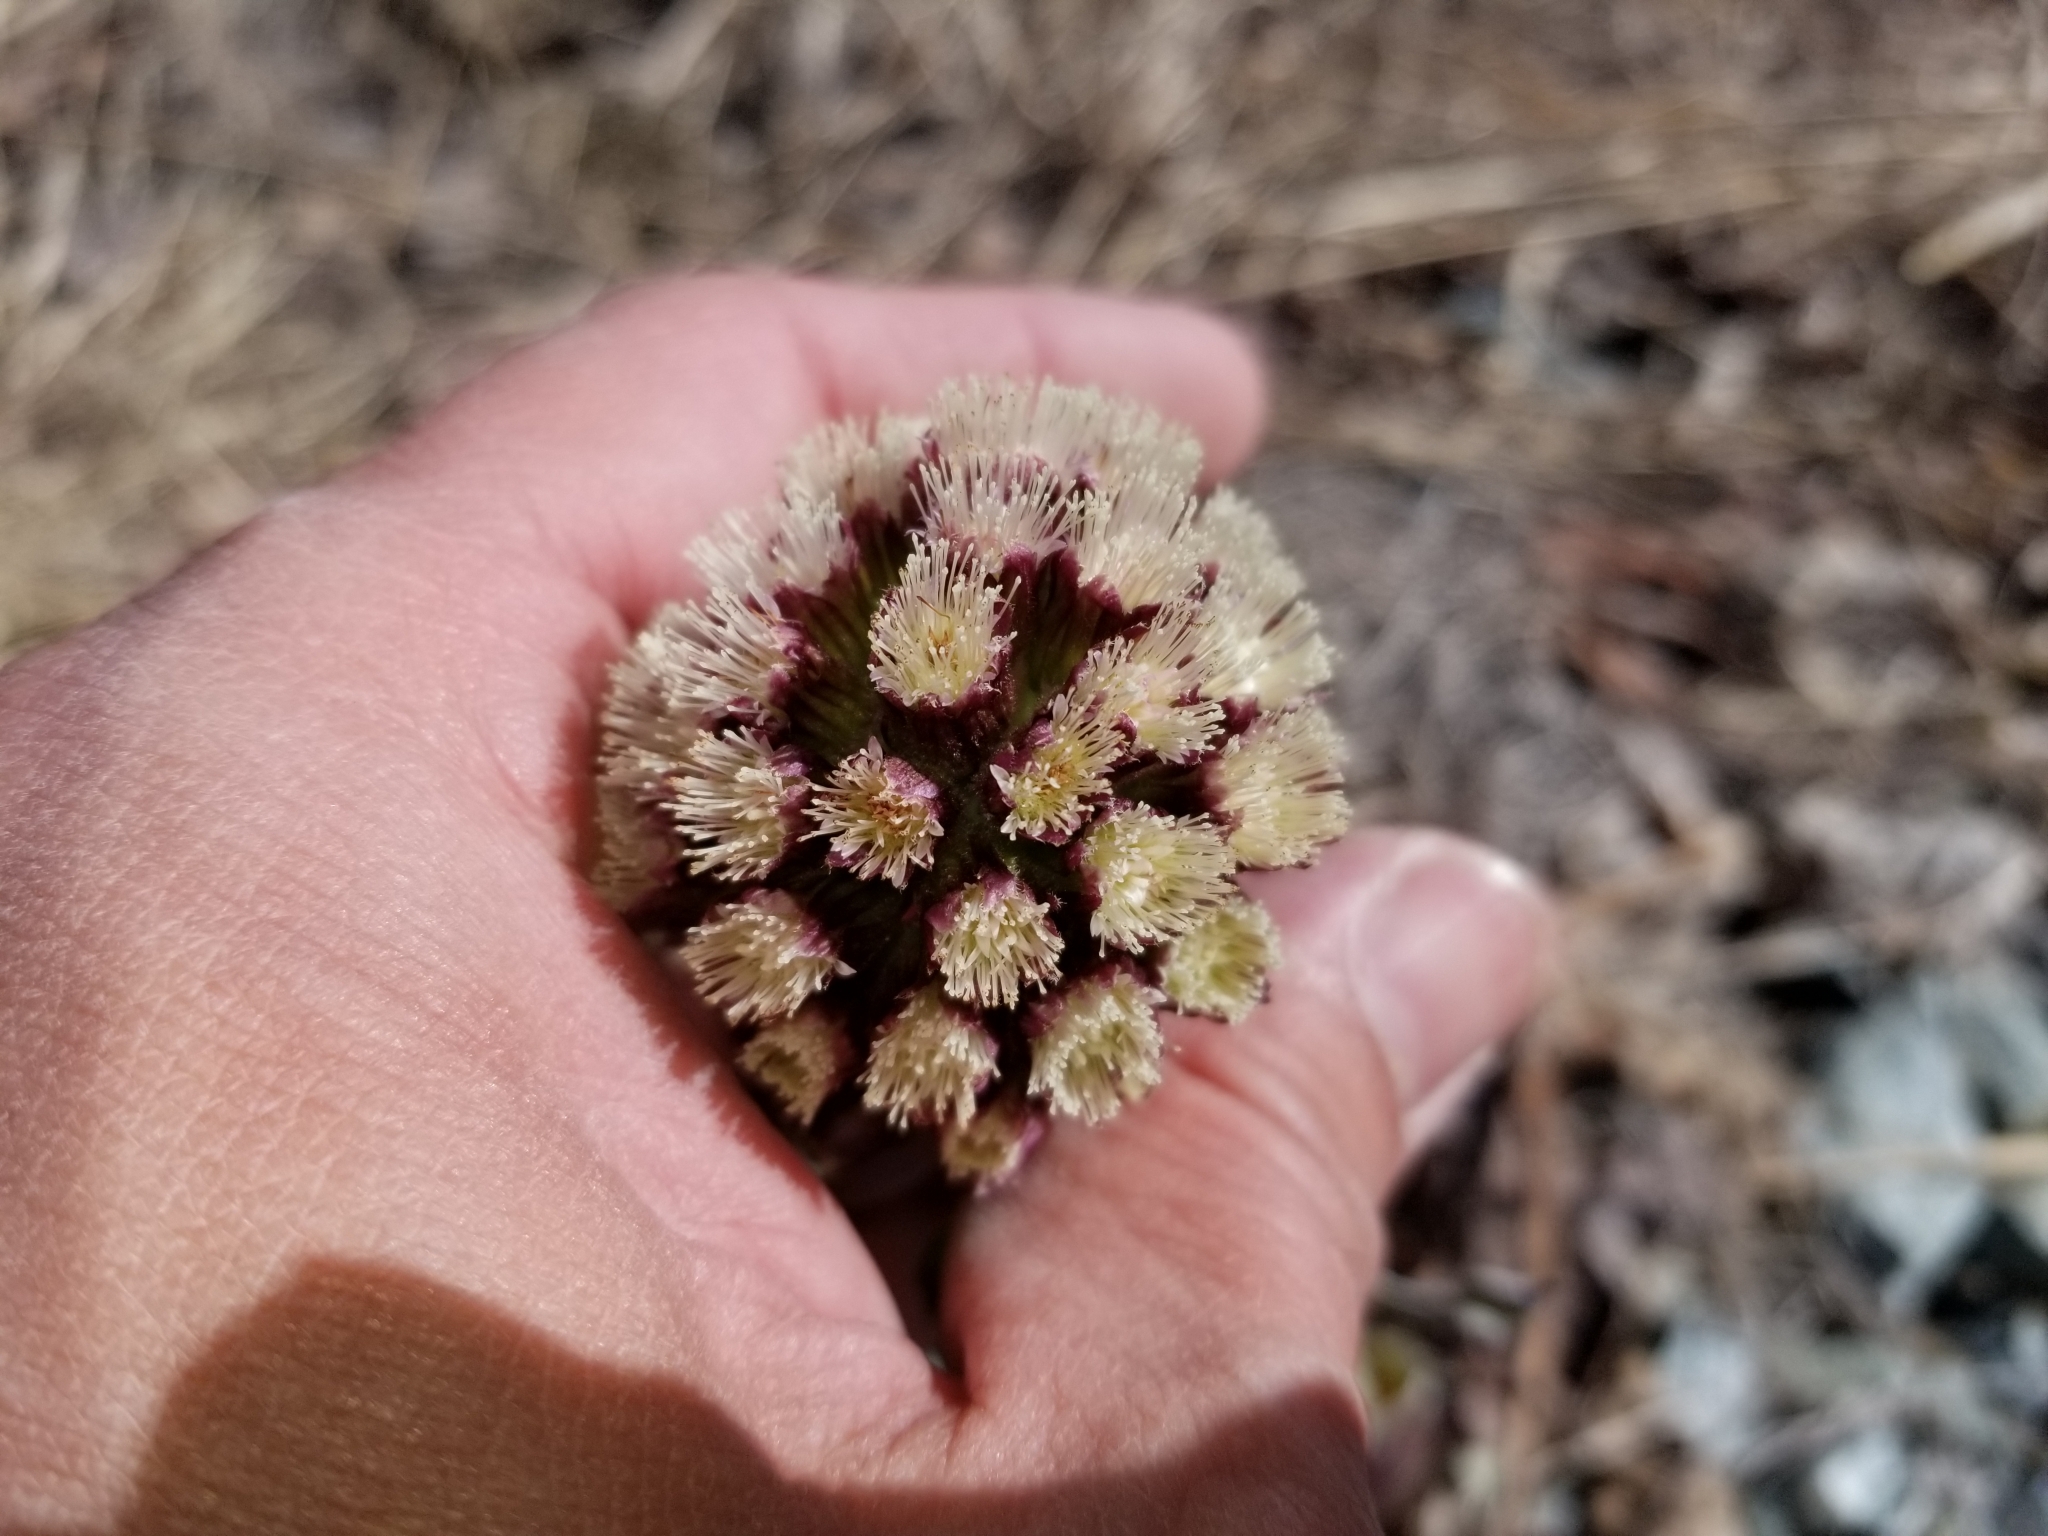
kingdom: Plantae
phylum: Tracheophyta
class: Magnoliopsida
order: Asterales
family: Asteraceae
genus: Petasites
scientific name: Petasites frigidus
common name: Arctic butterbur
